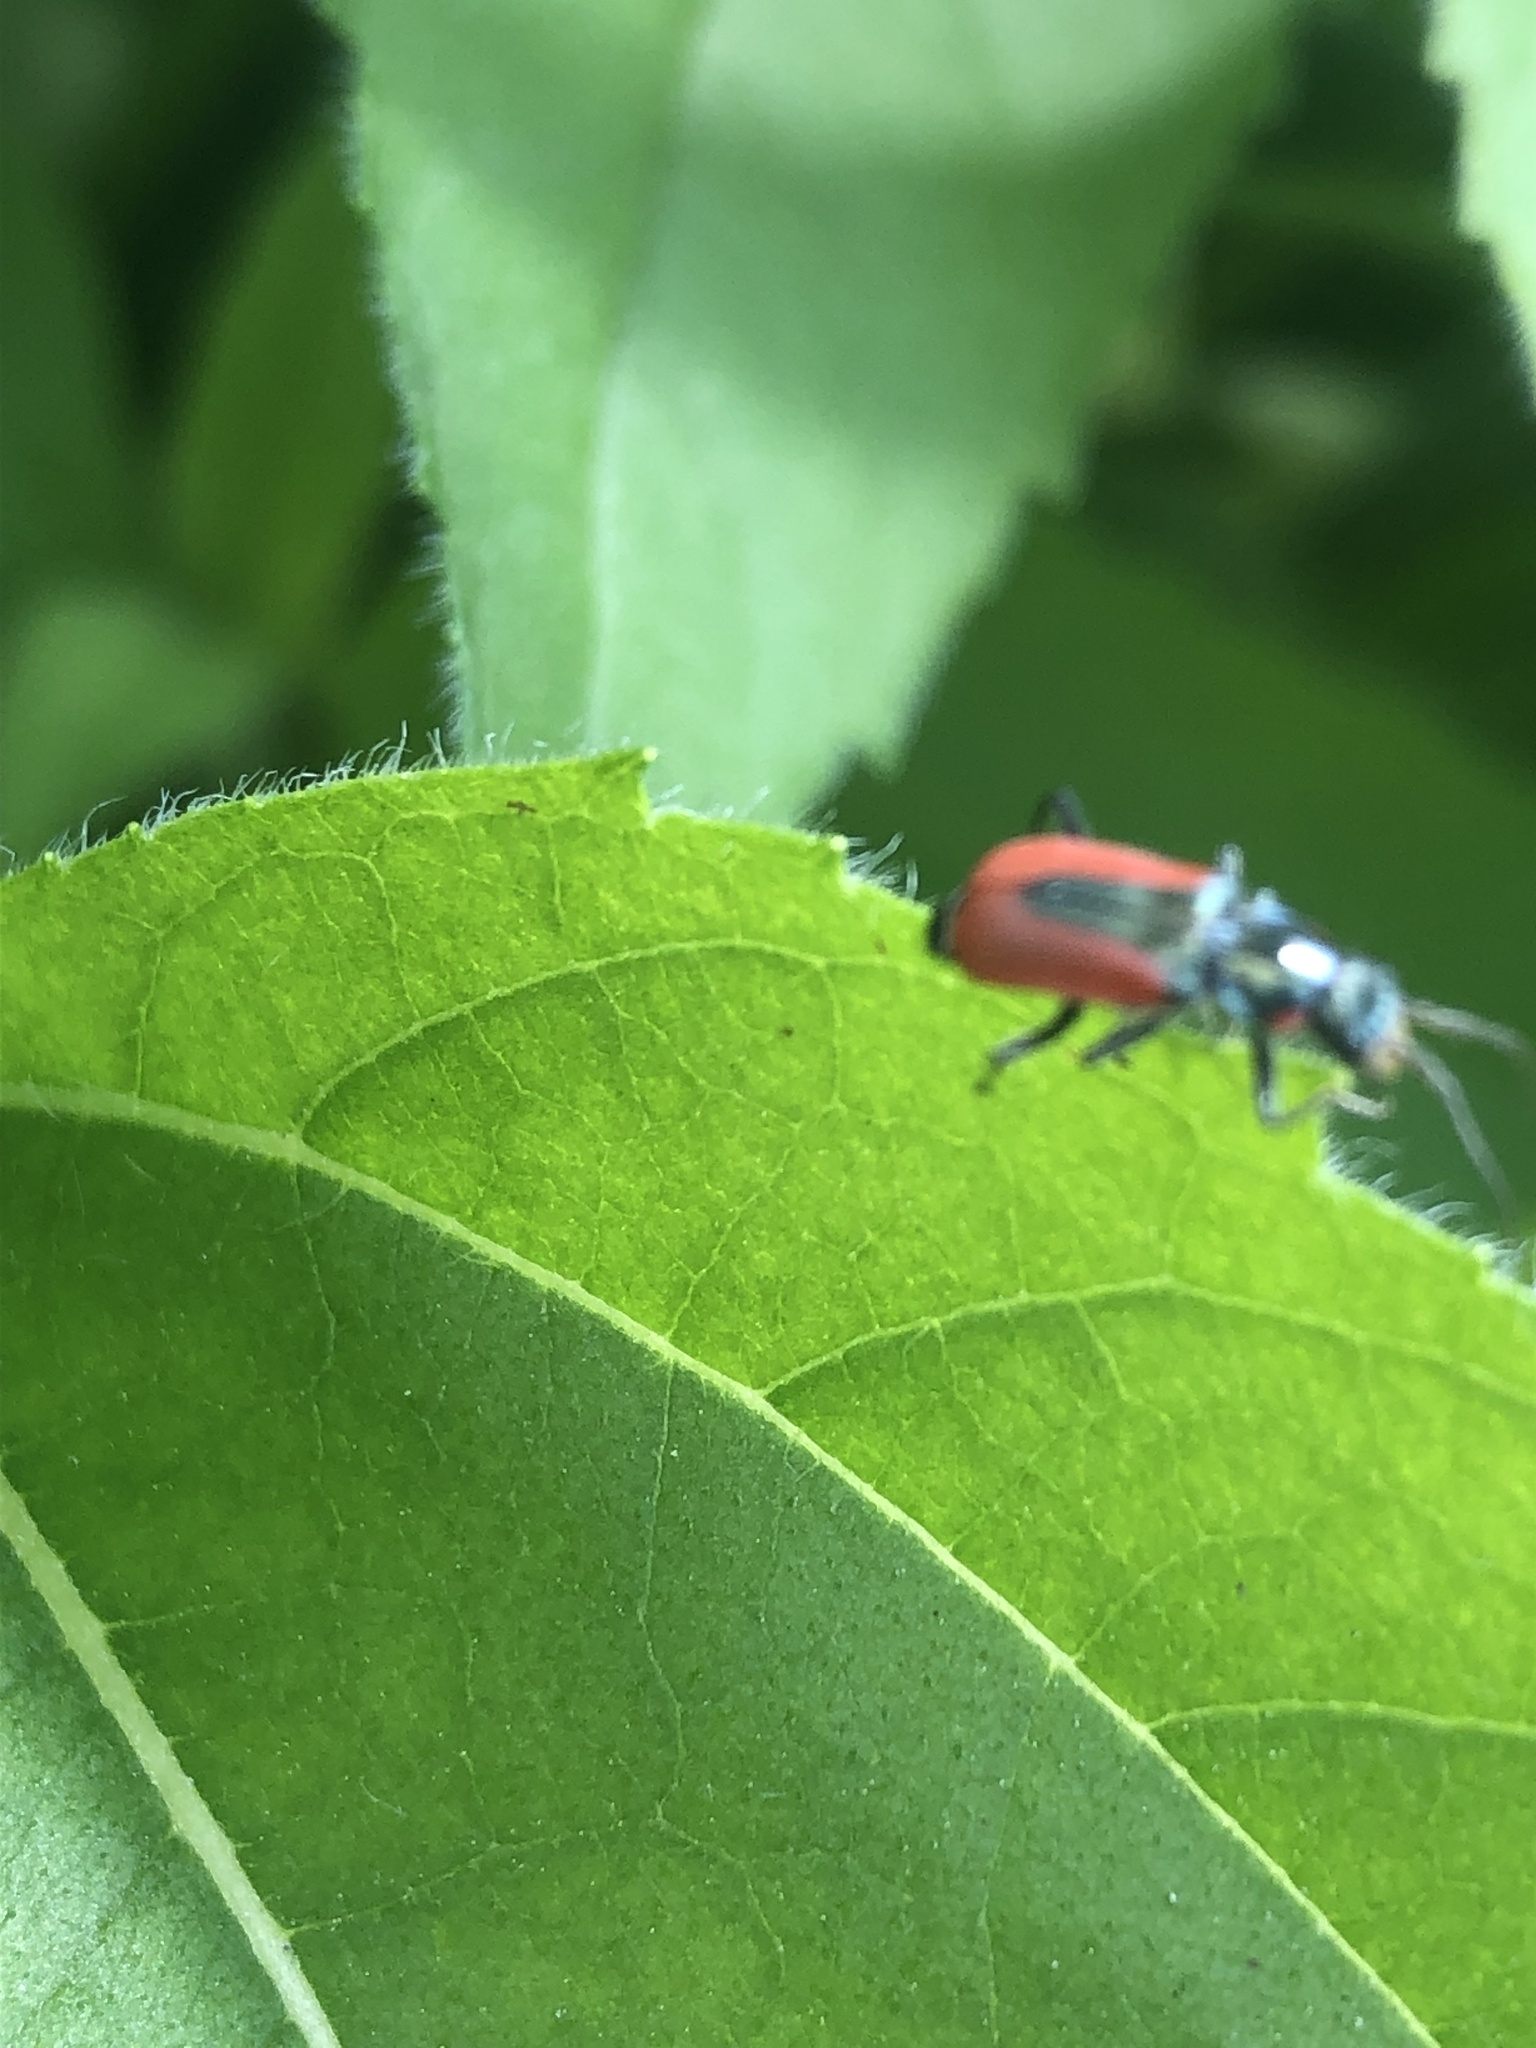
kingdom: Animalia
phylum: Arthropoda
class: Insecta
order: Coleoptera
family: Melyridae
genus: Malachius
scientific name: Malachius aeneus
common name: Scarlet malachite beetle
